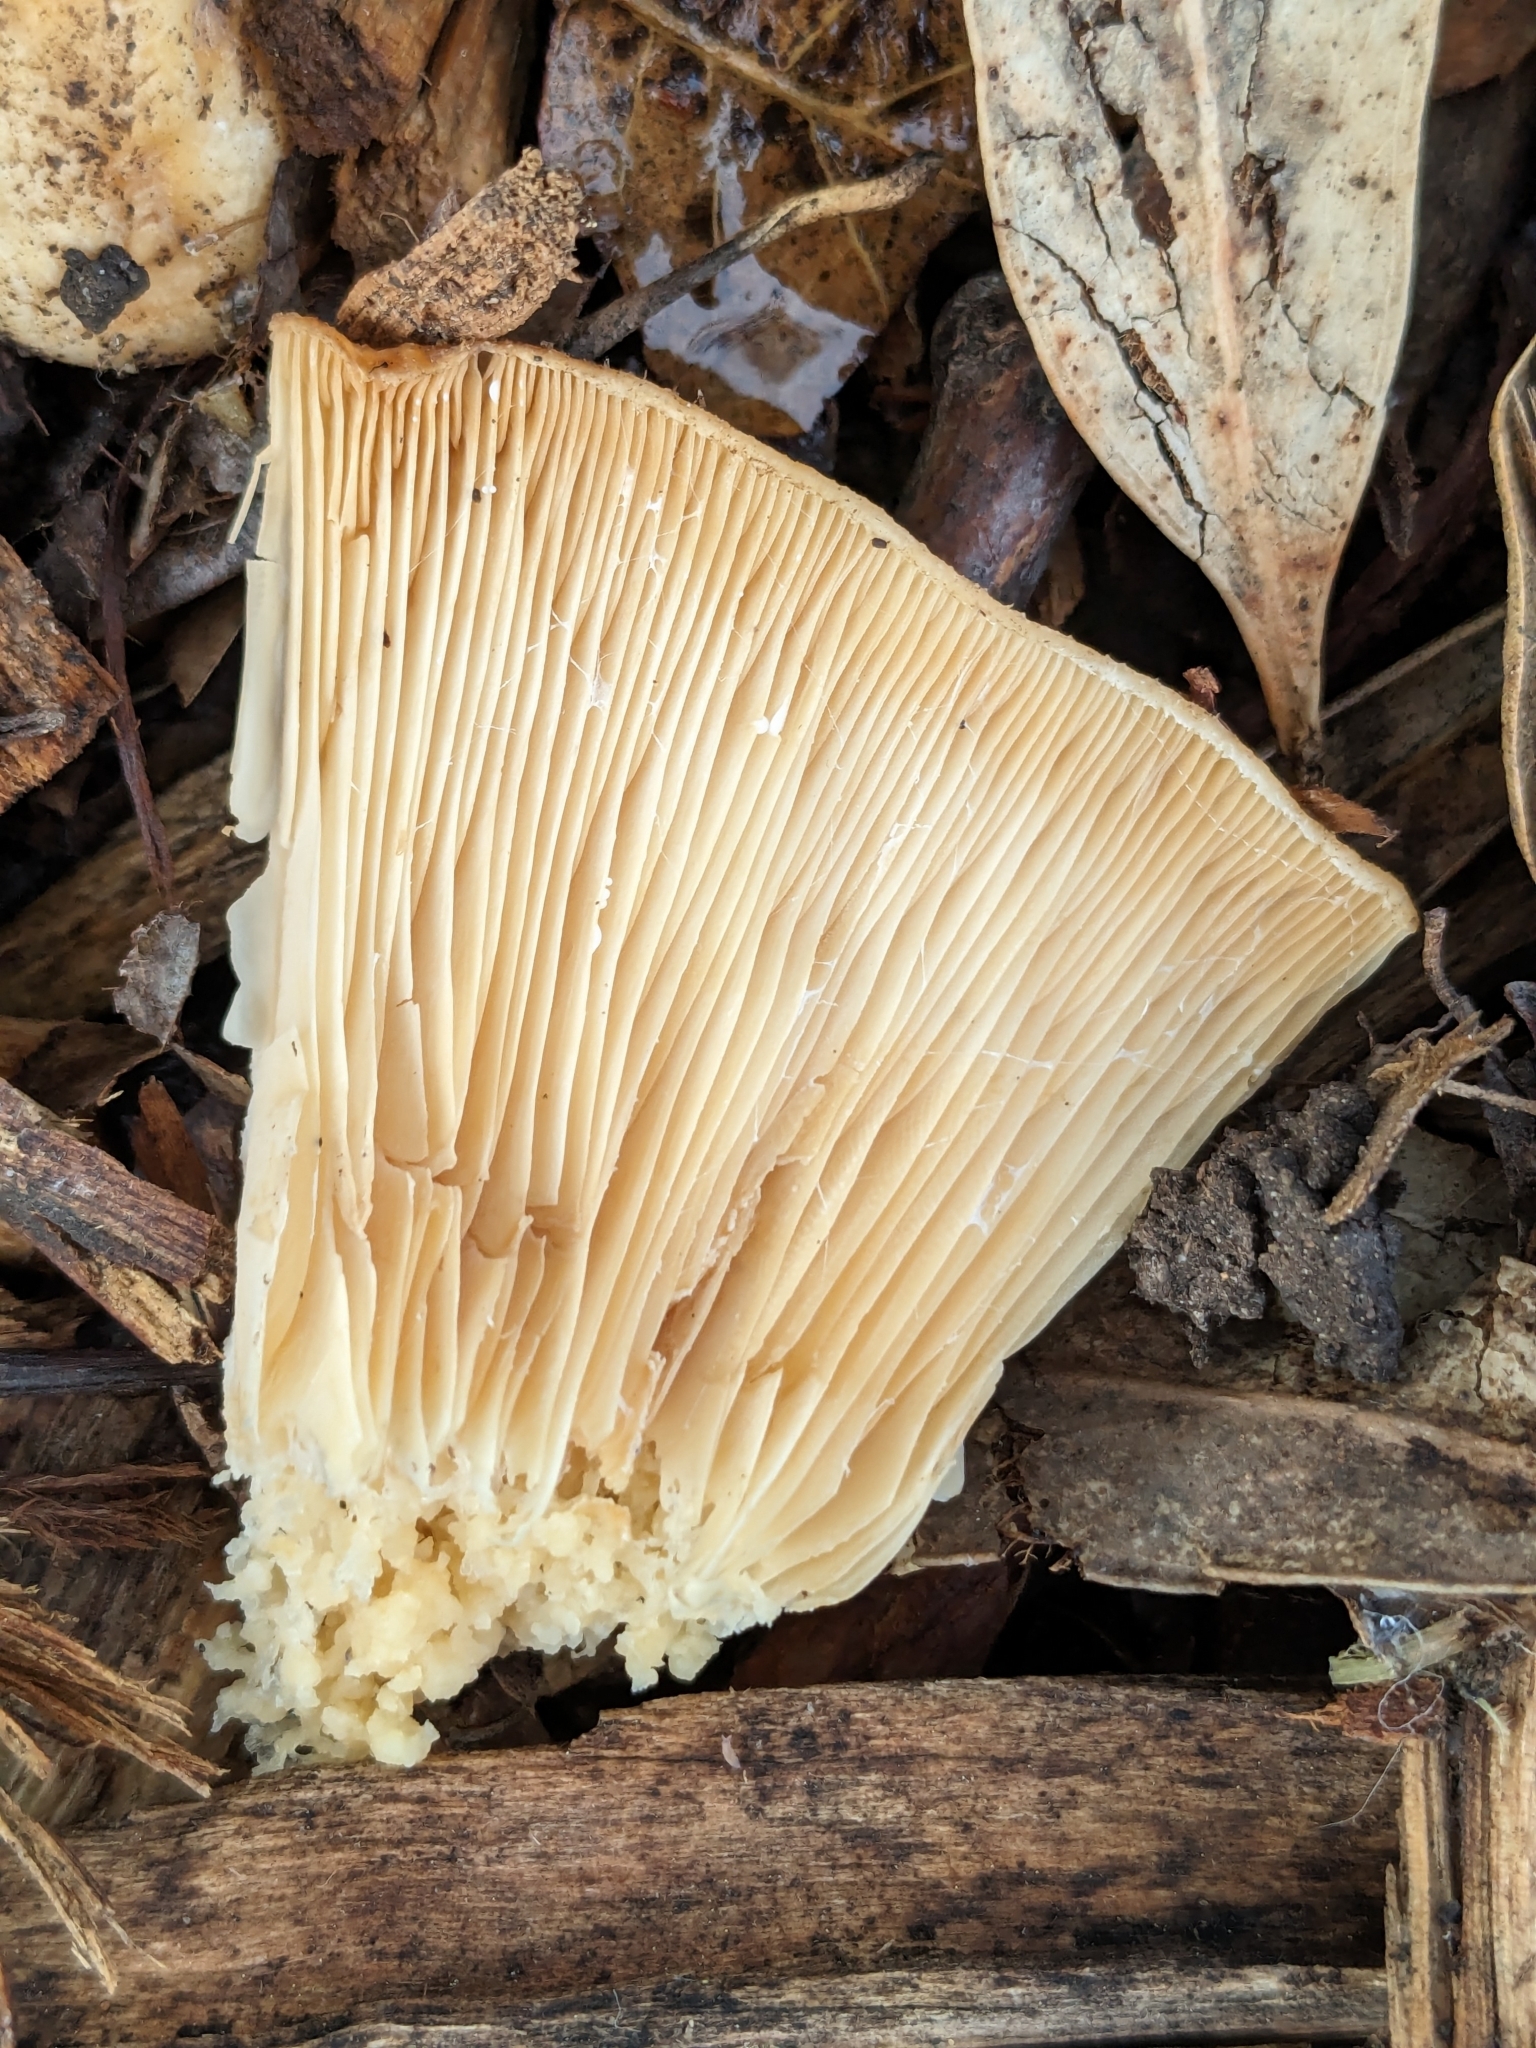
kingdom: Fungi
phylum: Basidiomycota
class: Agaricomycetes
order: Russulales
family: Russulaceae
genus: Lactarius
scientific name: Lactarius alnicola
